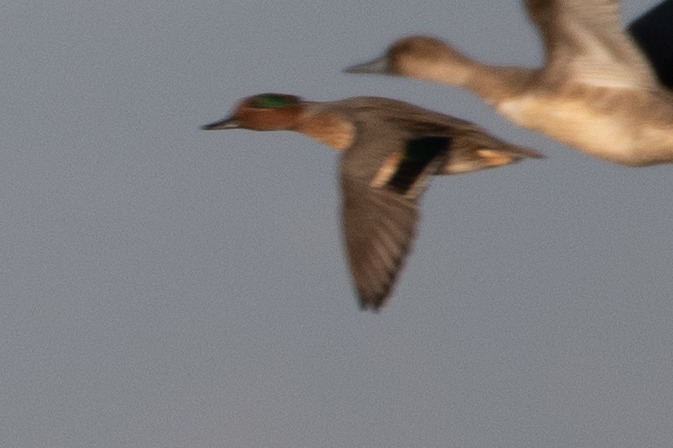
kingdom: Animalia
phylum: Chordata
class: Aves
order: Anseriformes
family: Anatidae
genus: Anas
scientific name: Anas crecca
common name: Eurasian teal
